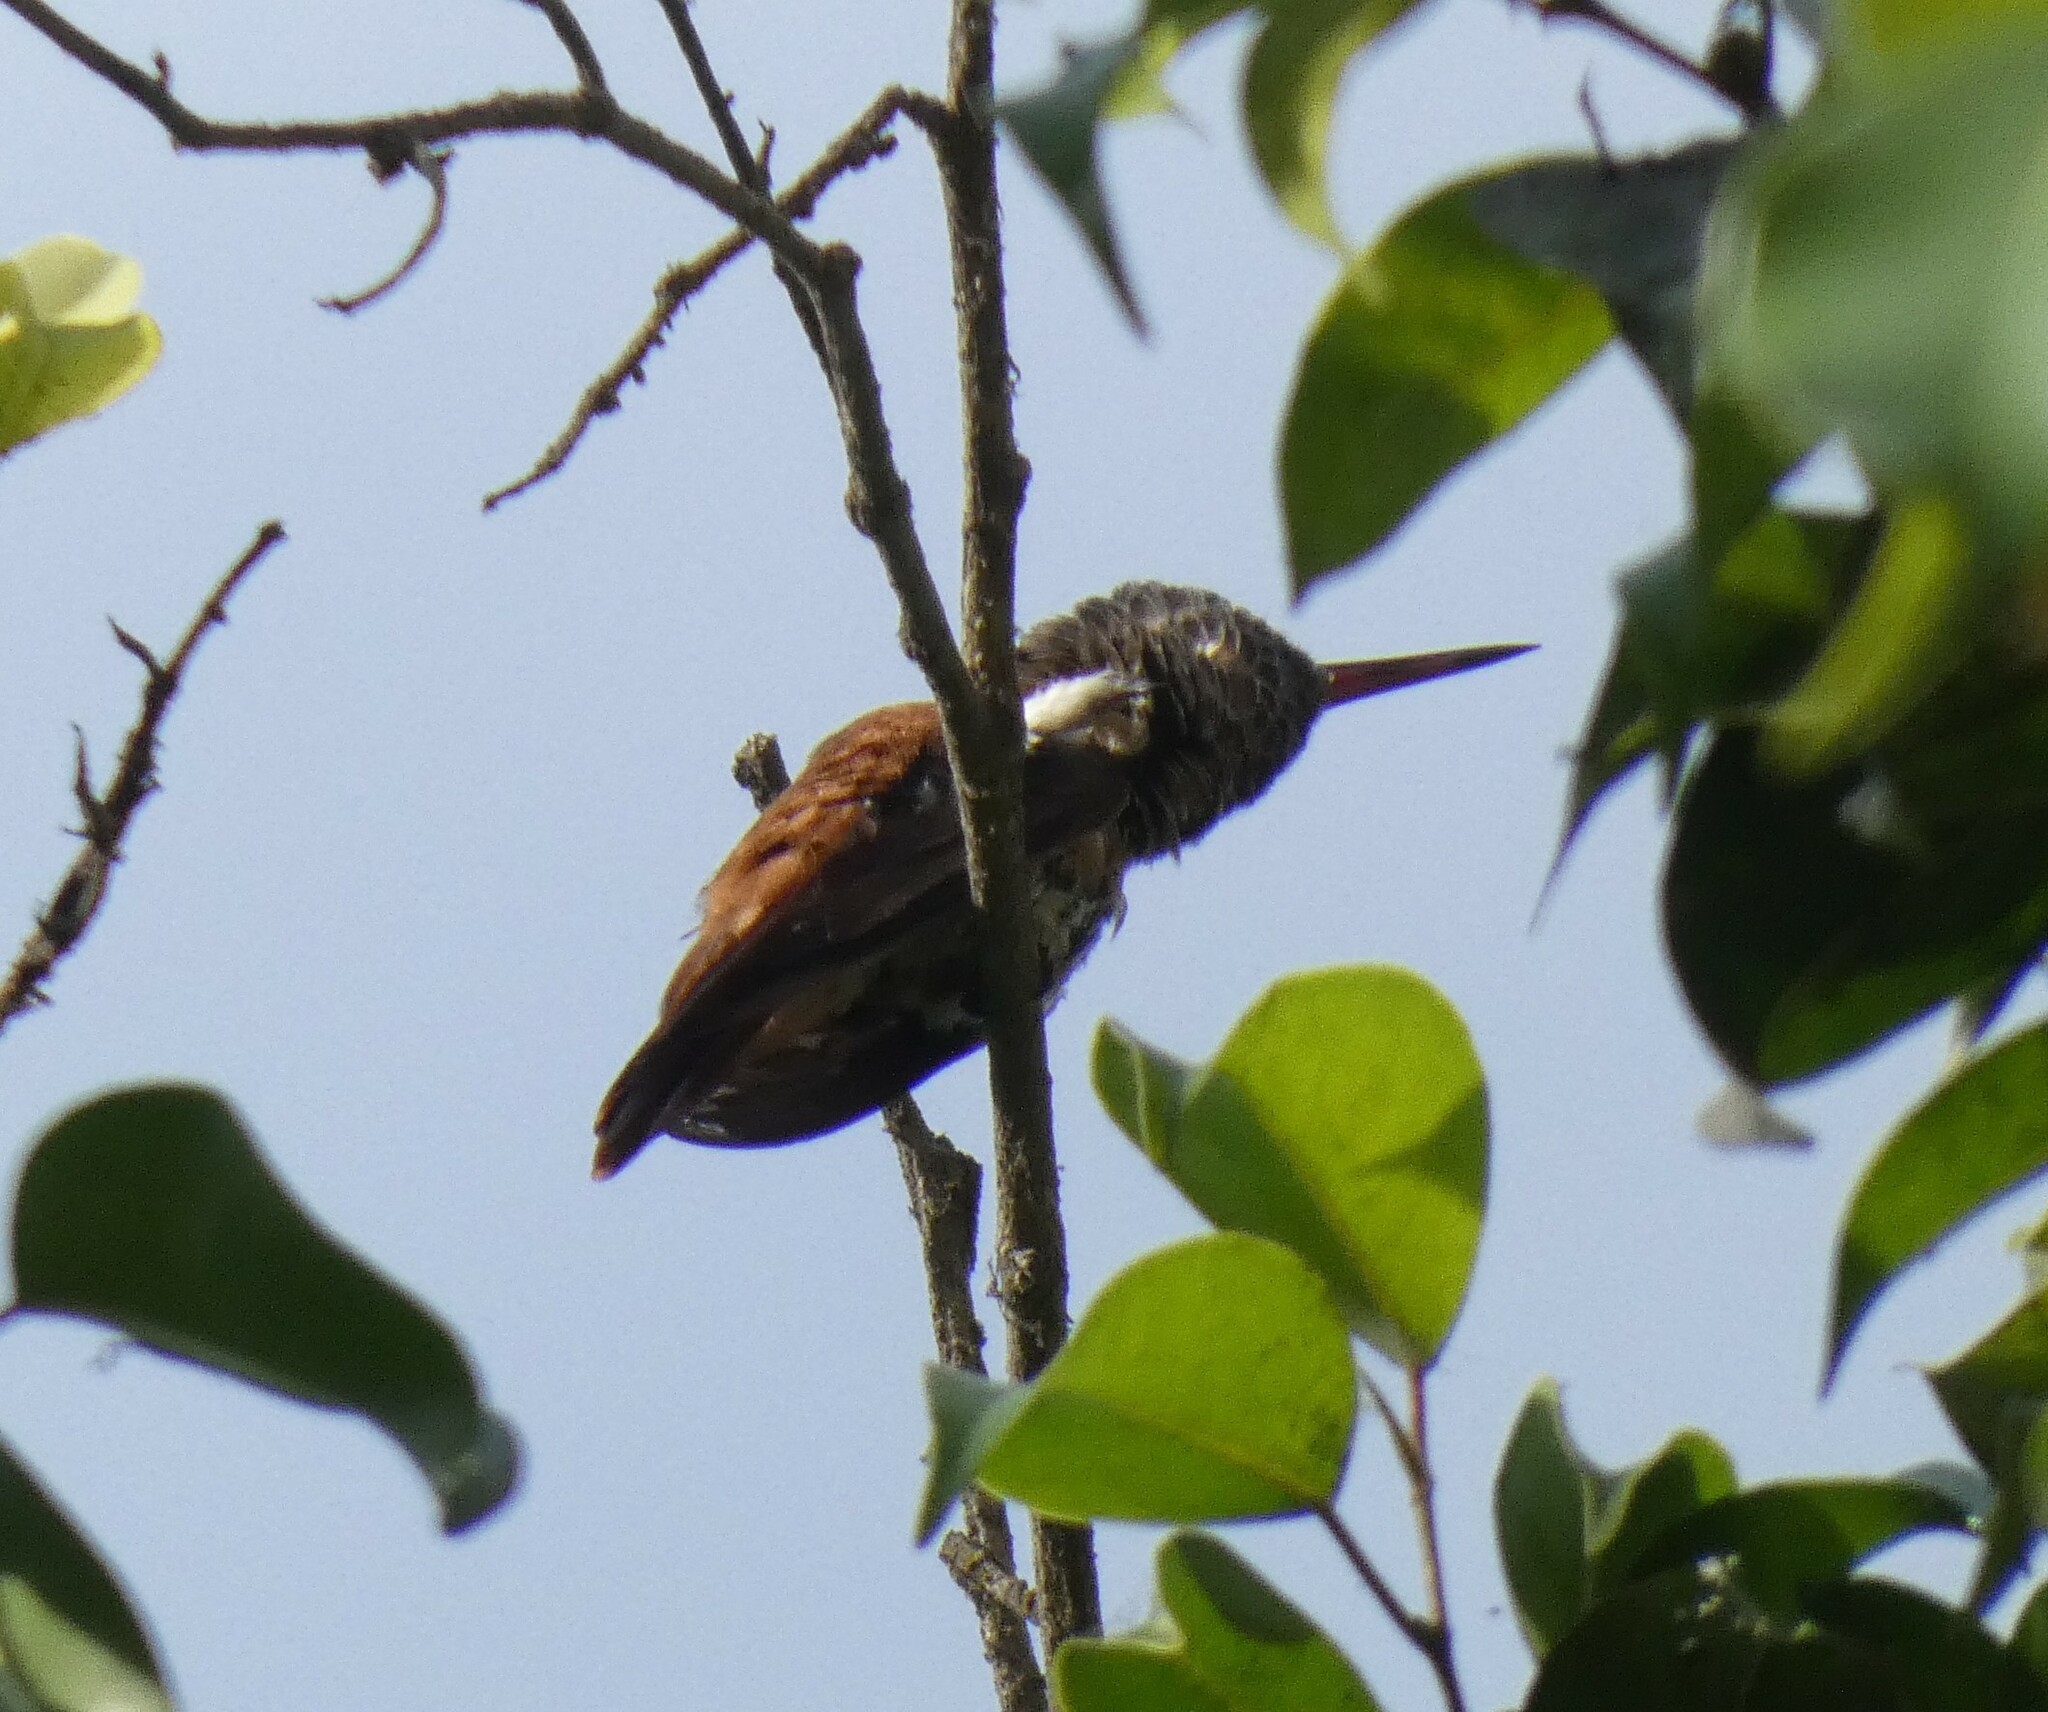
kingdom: Animalia
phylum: Chordata
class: Aves
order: Apodiformes
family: Trochilidae
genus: Amazilis
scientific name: Amazilis amazilia
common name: Amazilia hummingbird
